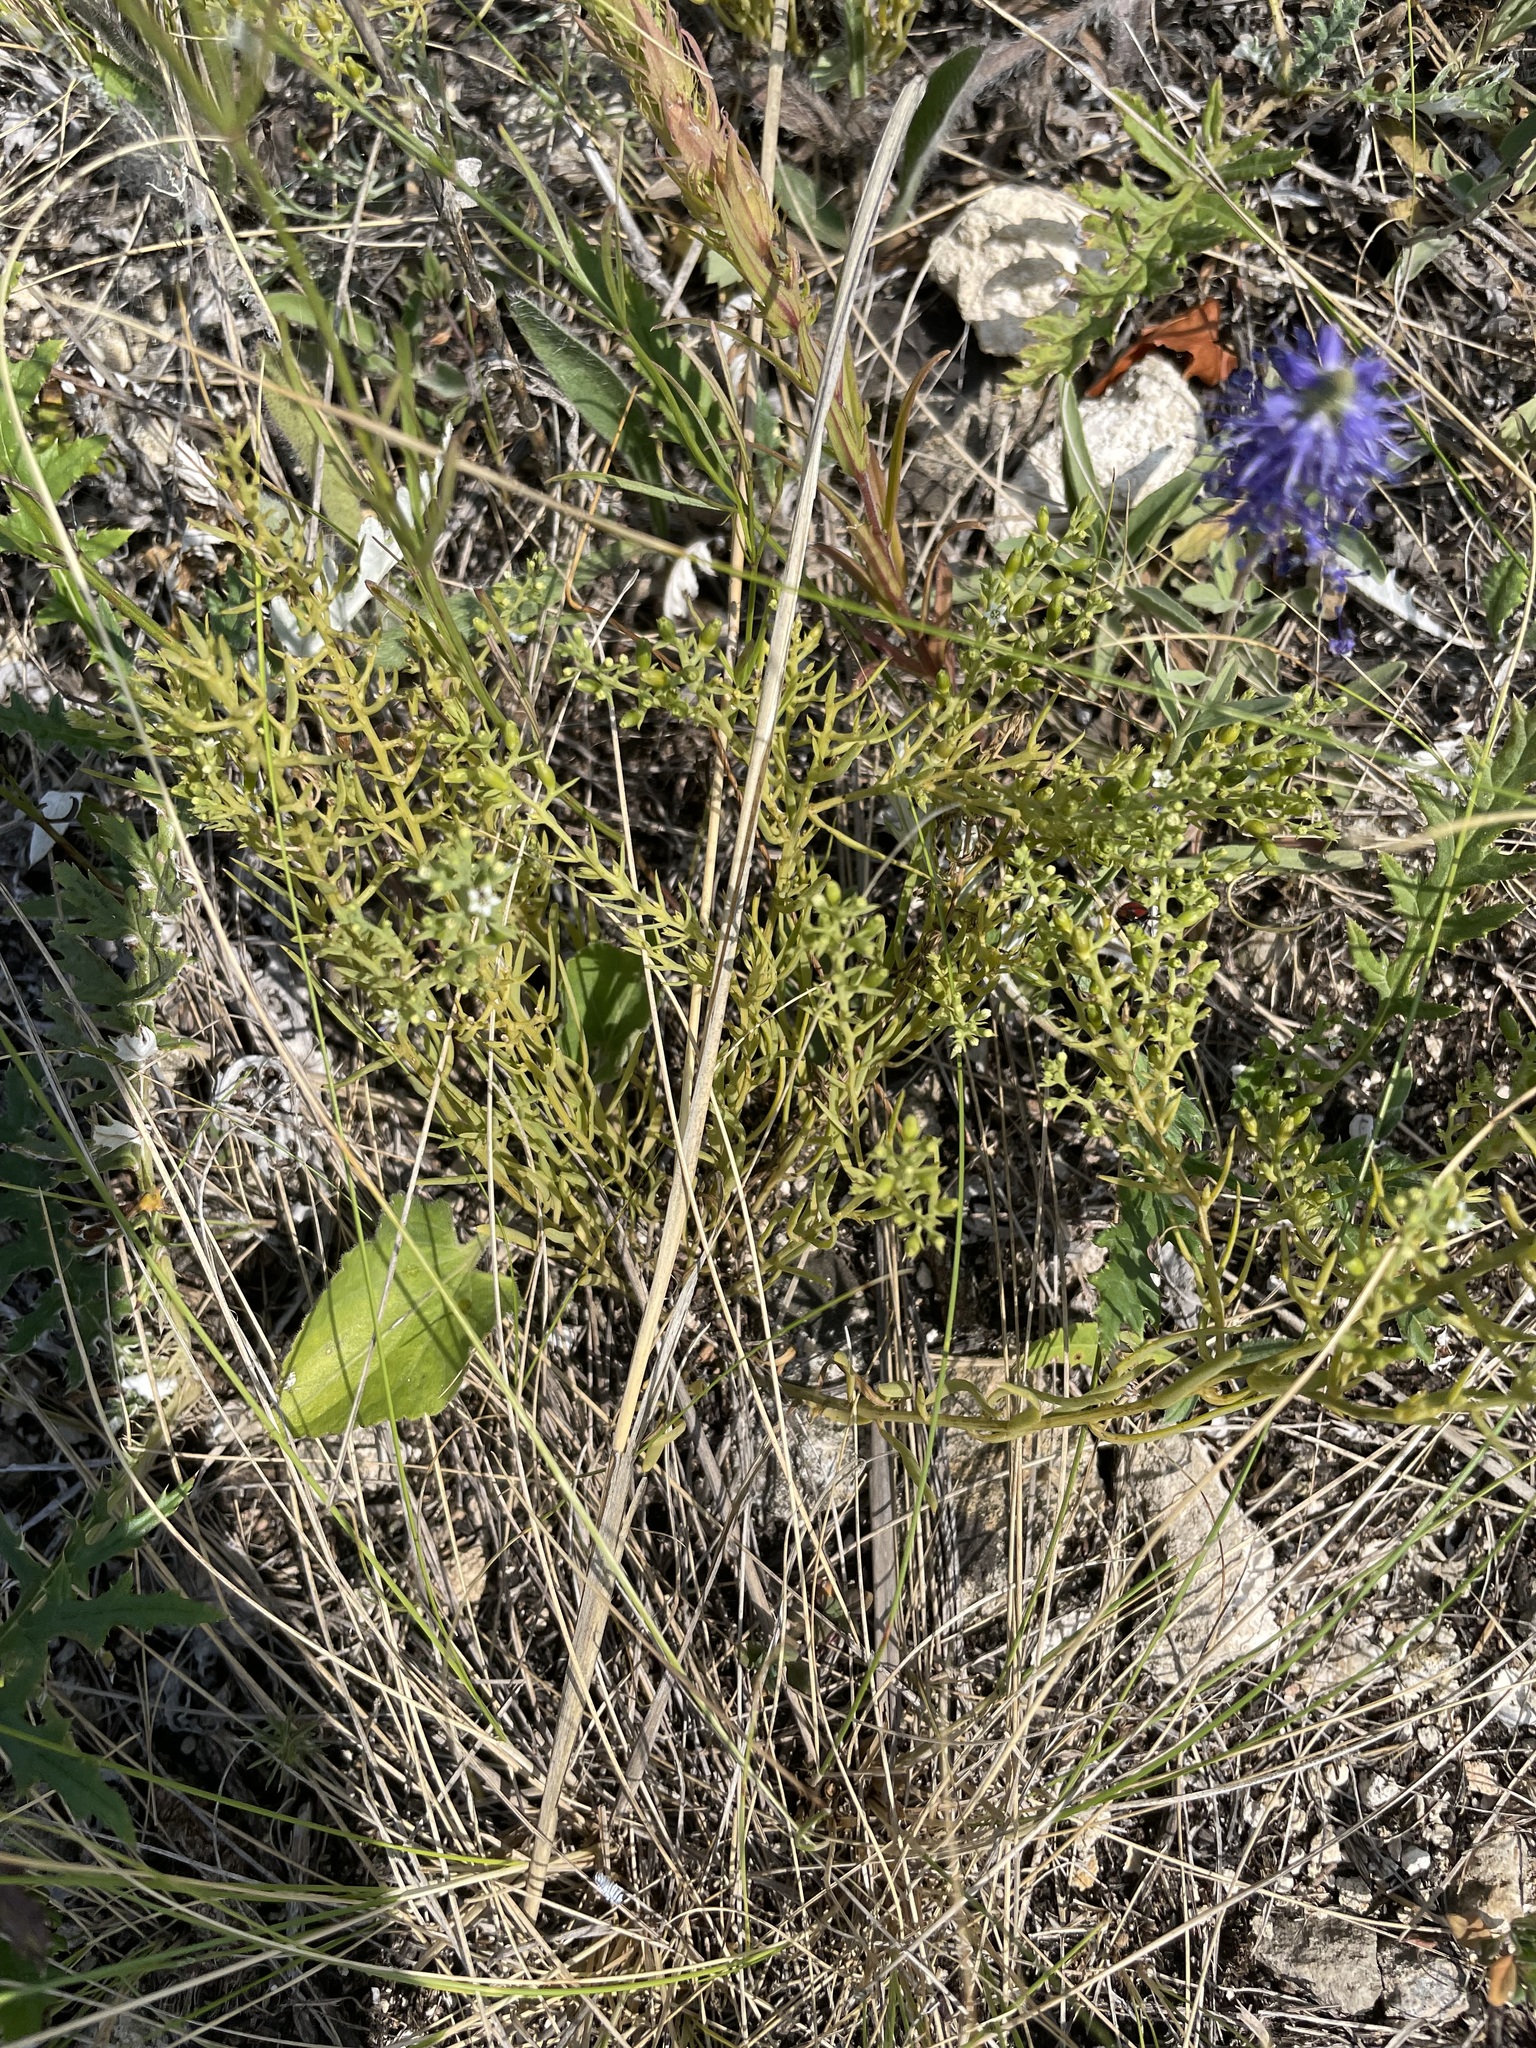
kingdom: Plantae
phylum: Tracheophyta
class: Magnoliopsida
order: Santalales
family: Thesiaceae
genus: Thesium
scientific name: Thesium ramosum
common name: Field thesium
